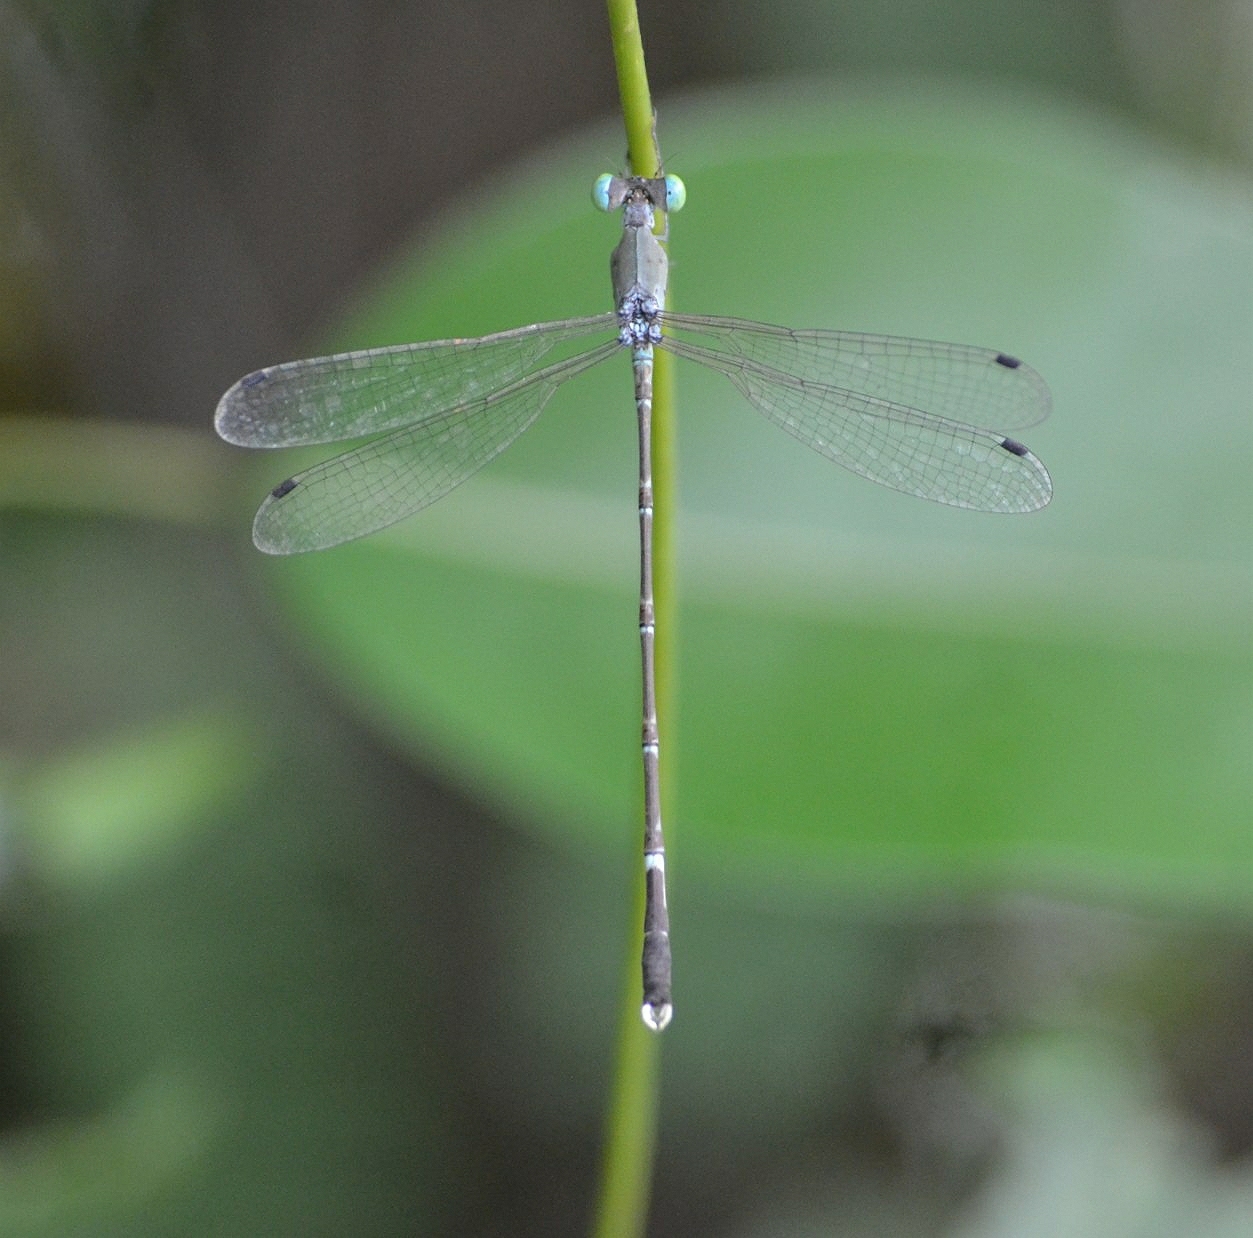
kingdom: Animalia
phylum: Arthropoda
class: Insecta
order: Odonata
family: Lestidae
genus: Platylestes
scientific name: Platylestes platystylus
